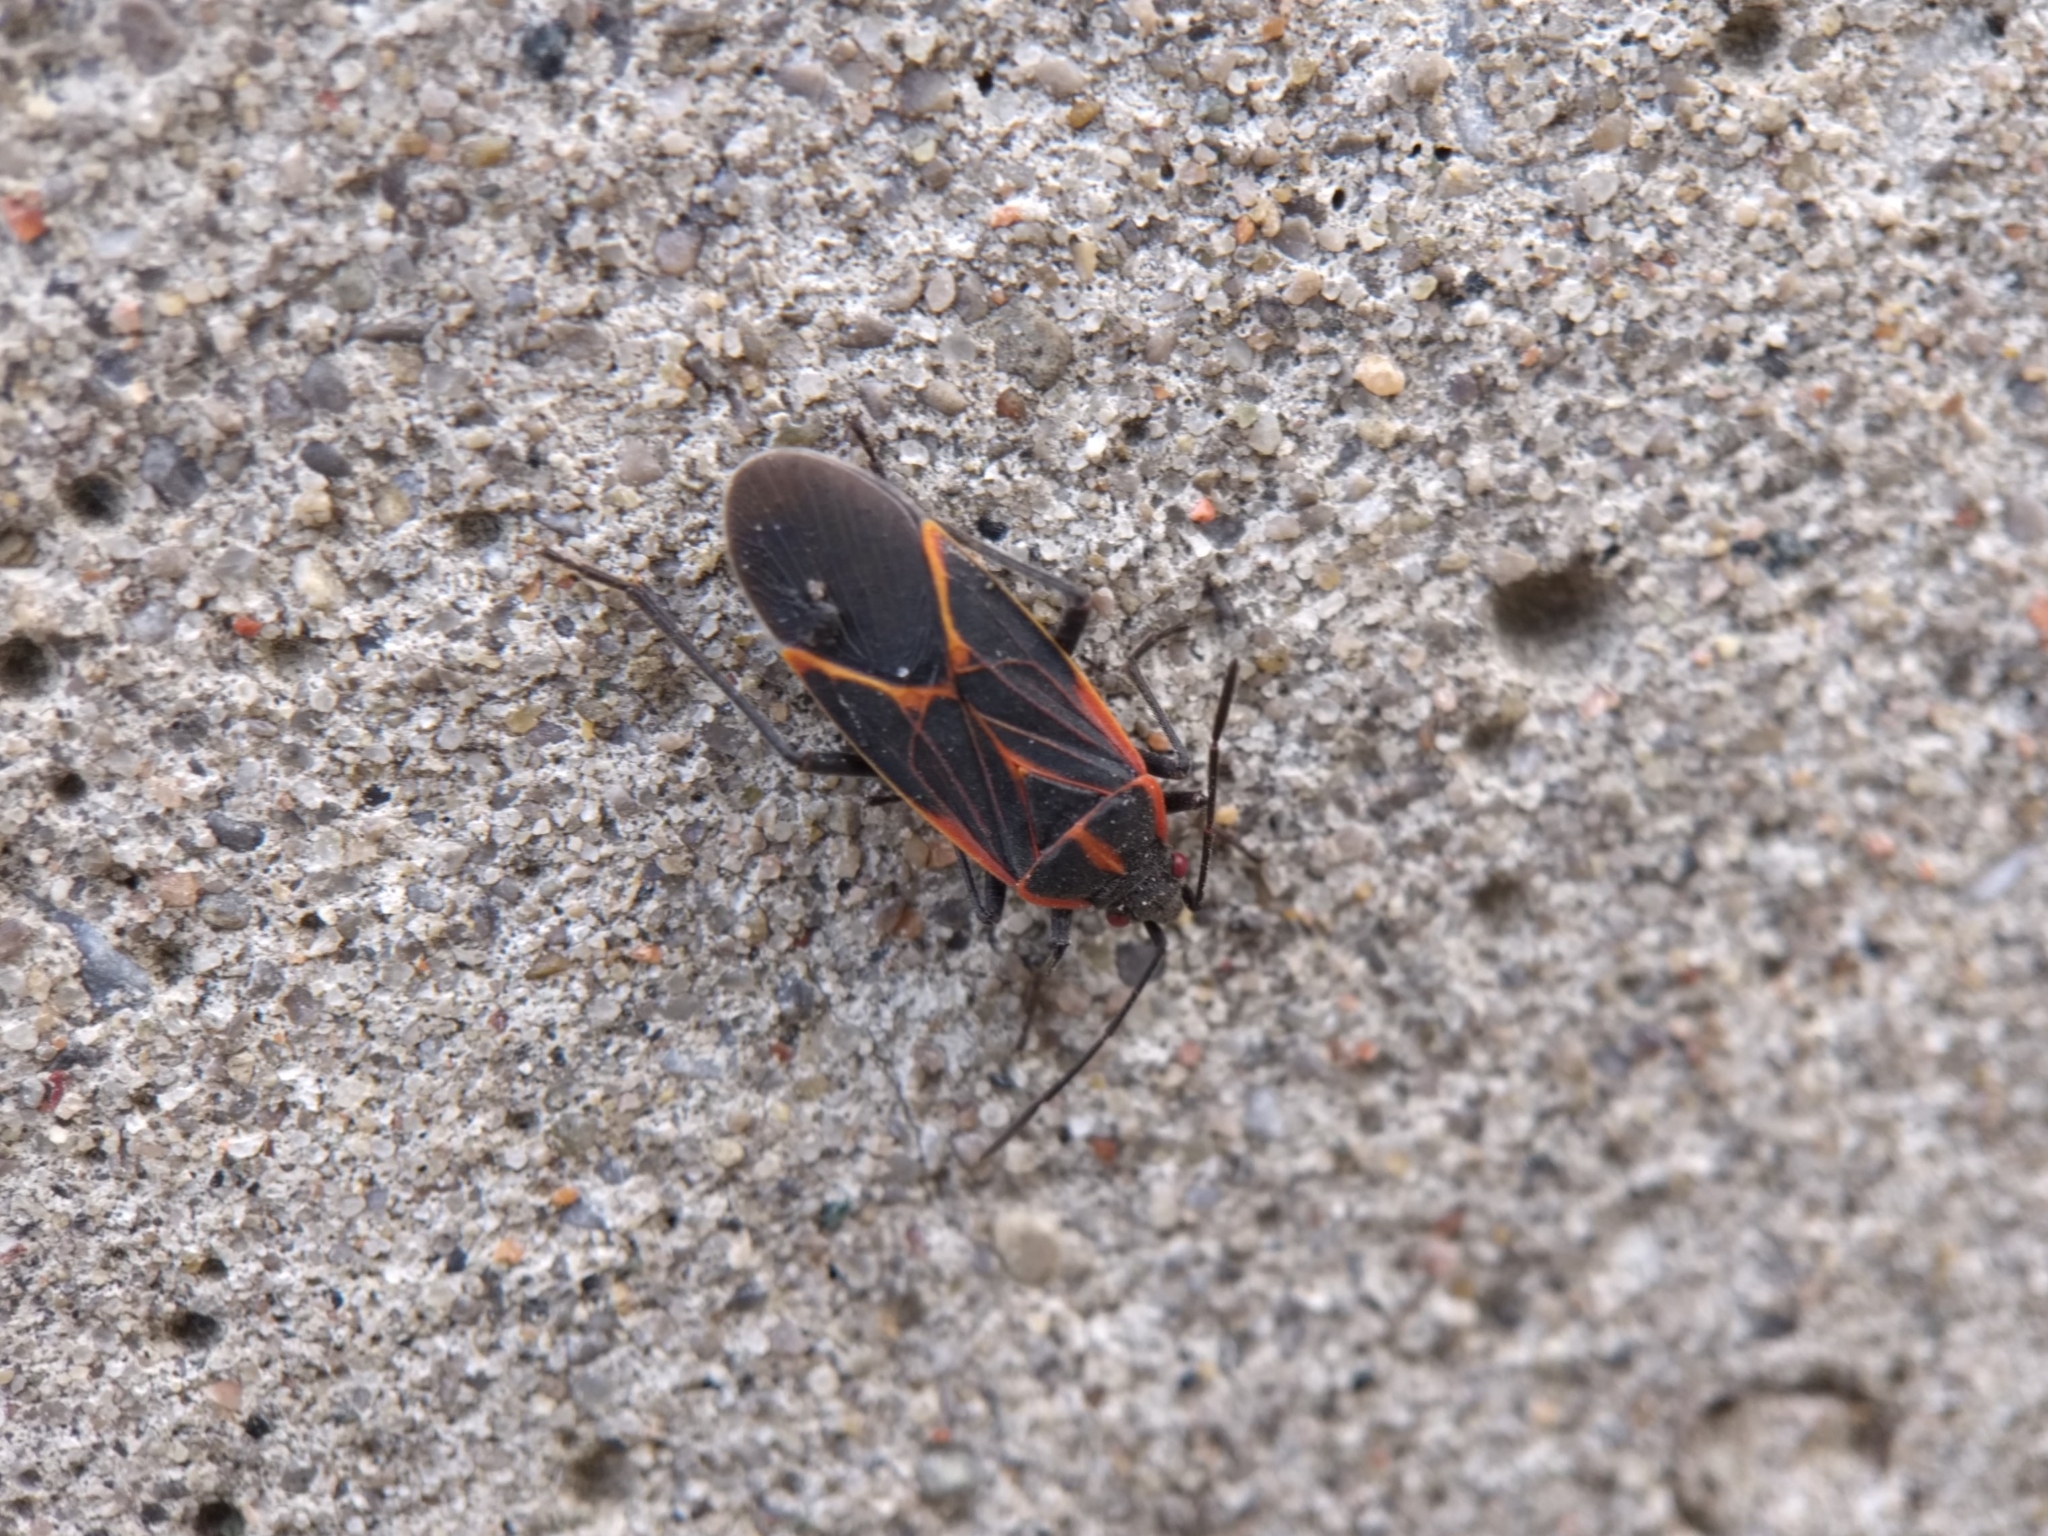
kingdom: Animalia
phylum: Arthropoda
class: Insecta
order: Hemiptera
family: Rhopalidae
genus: Boisea
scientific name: Boisea trivittata
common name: Boxelder bug
